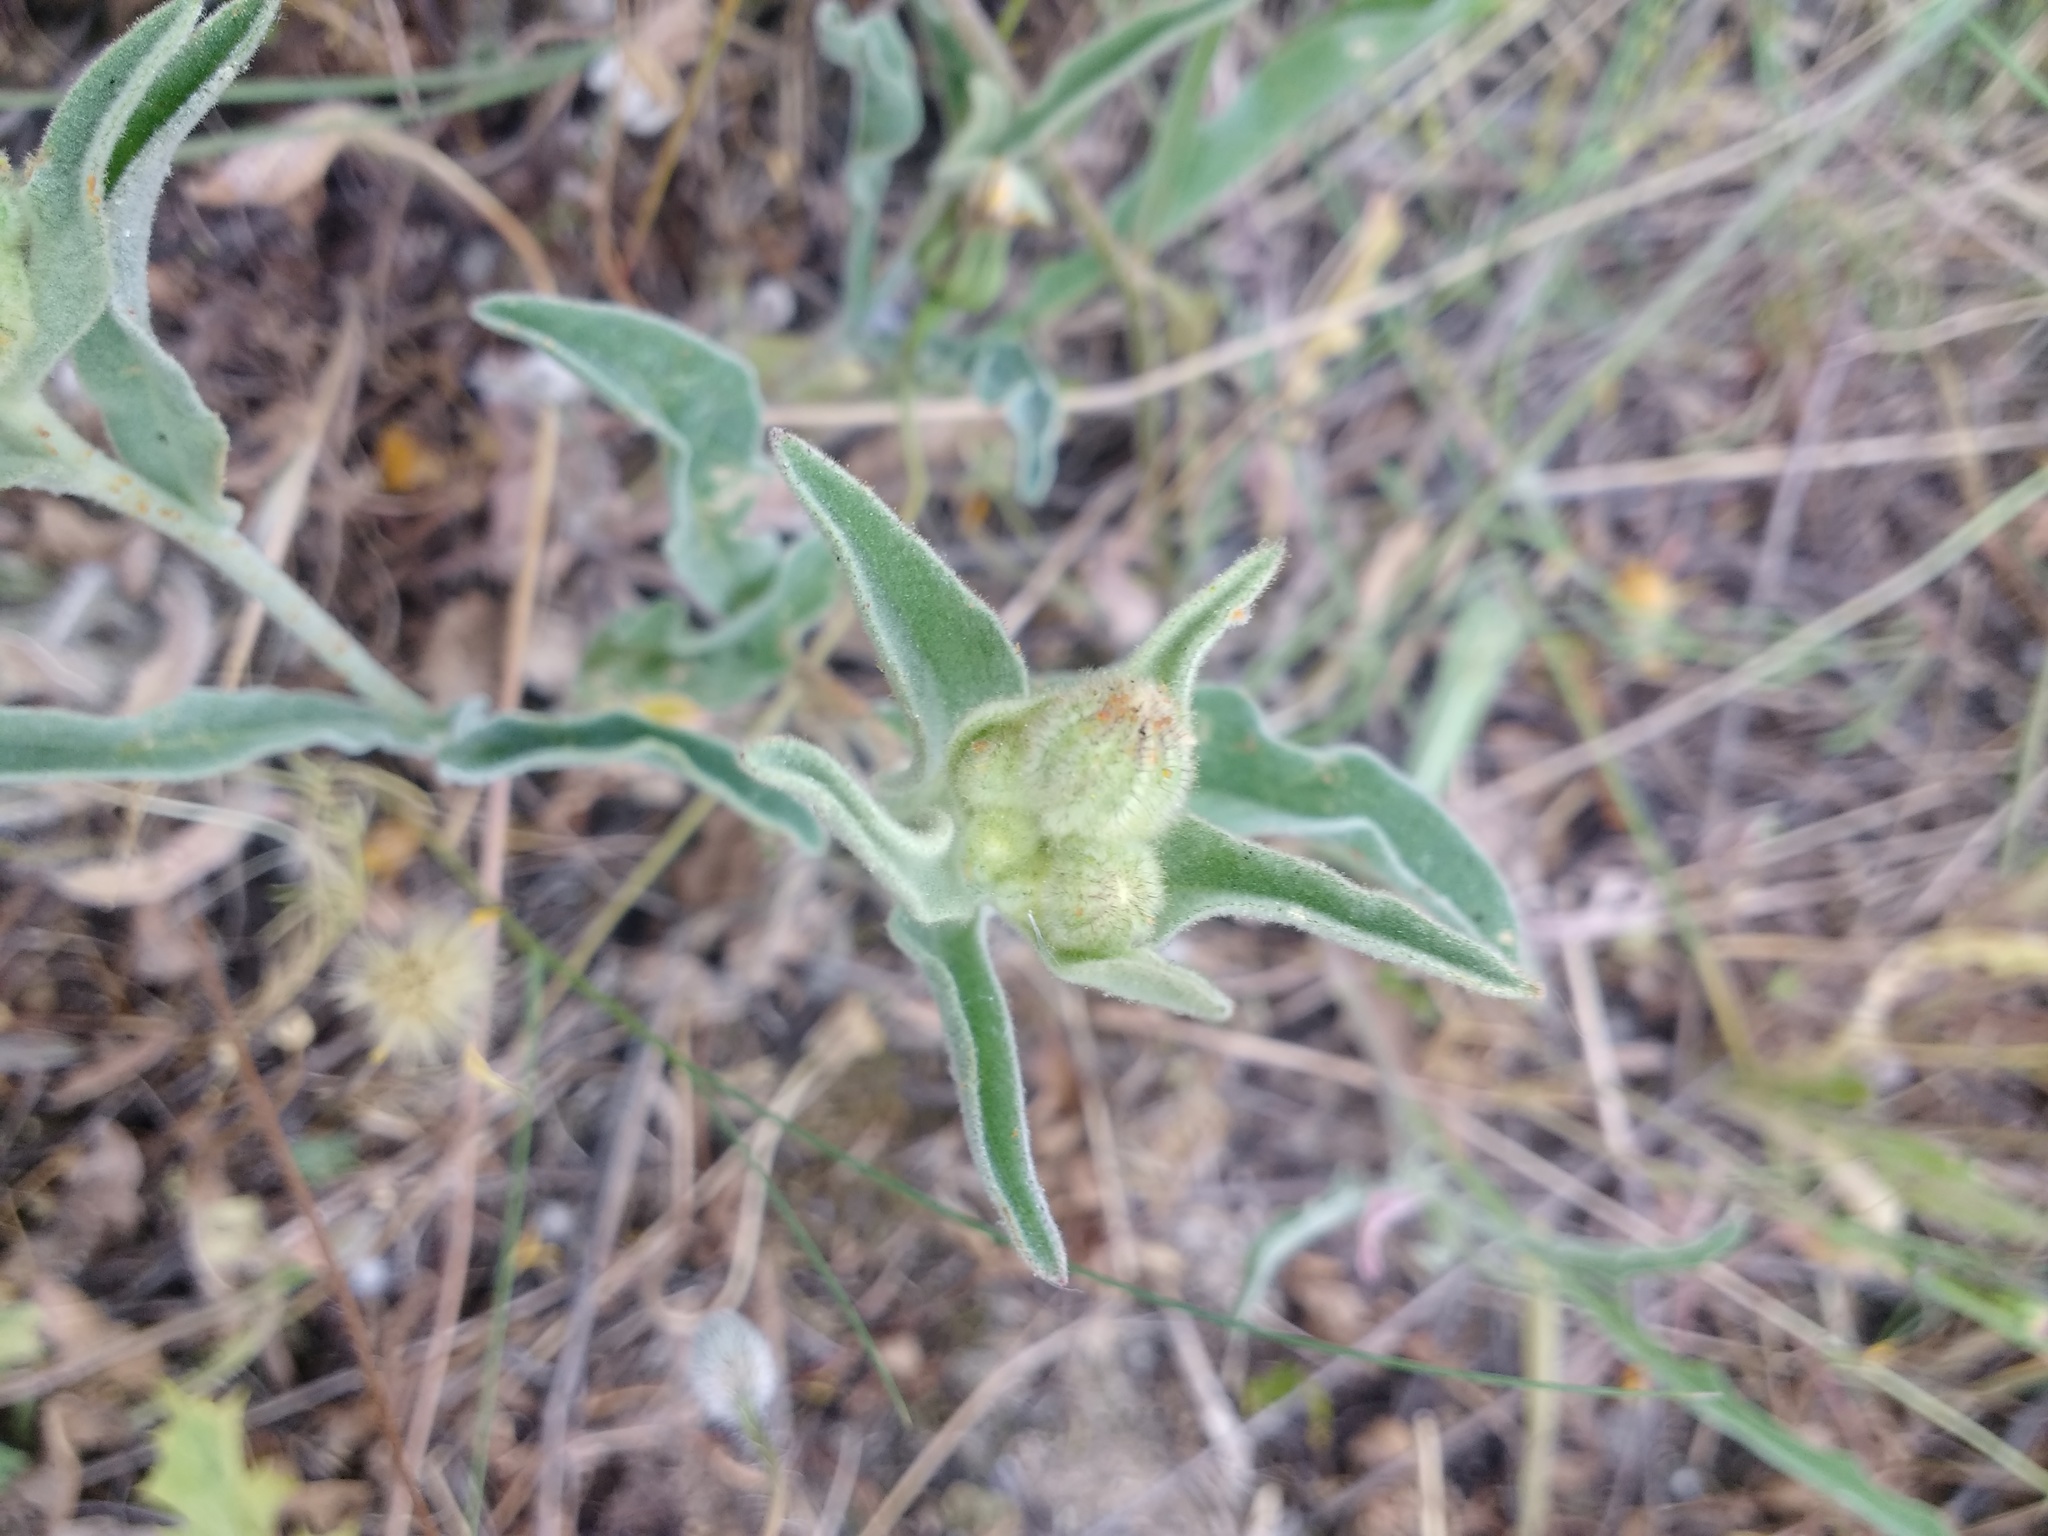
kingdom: Plantae
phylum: Tracheophyta
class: Magnoliopsida
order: Asterales
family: Asteraceae
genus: Andryala
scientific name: Andryala integrifolia
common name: Common andryala
